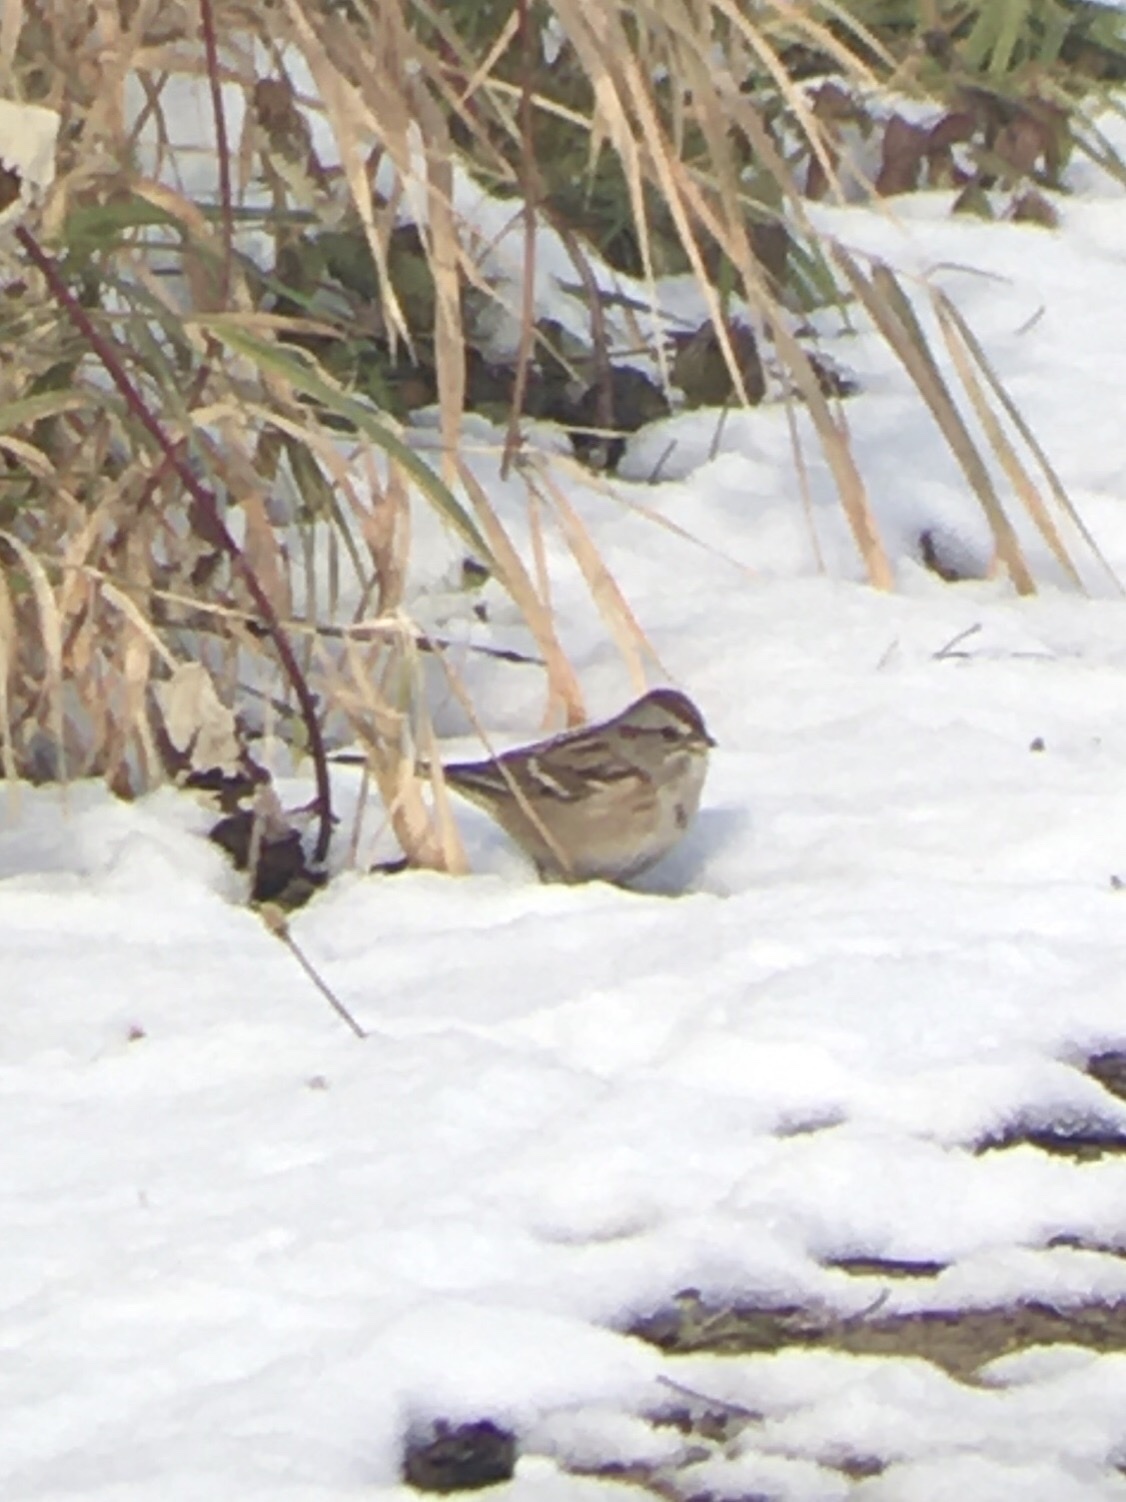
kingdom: Animalia
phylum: Chordata
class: Aves
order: Passeriformes
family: Passerellidae
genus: Spizelloides
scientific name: Spizelloides arborea
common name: American tree sparrow
